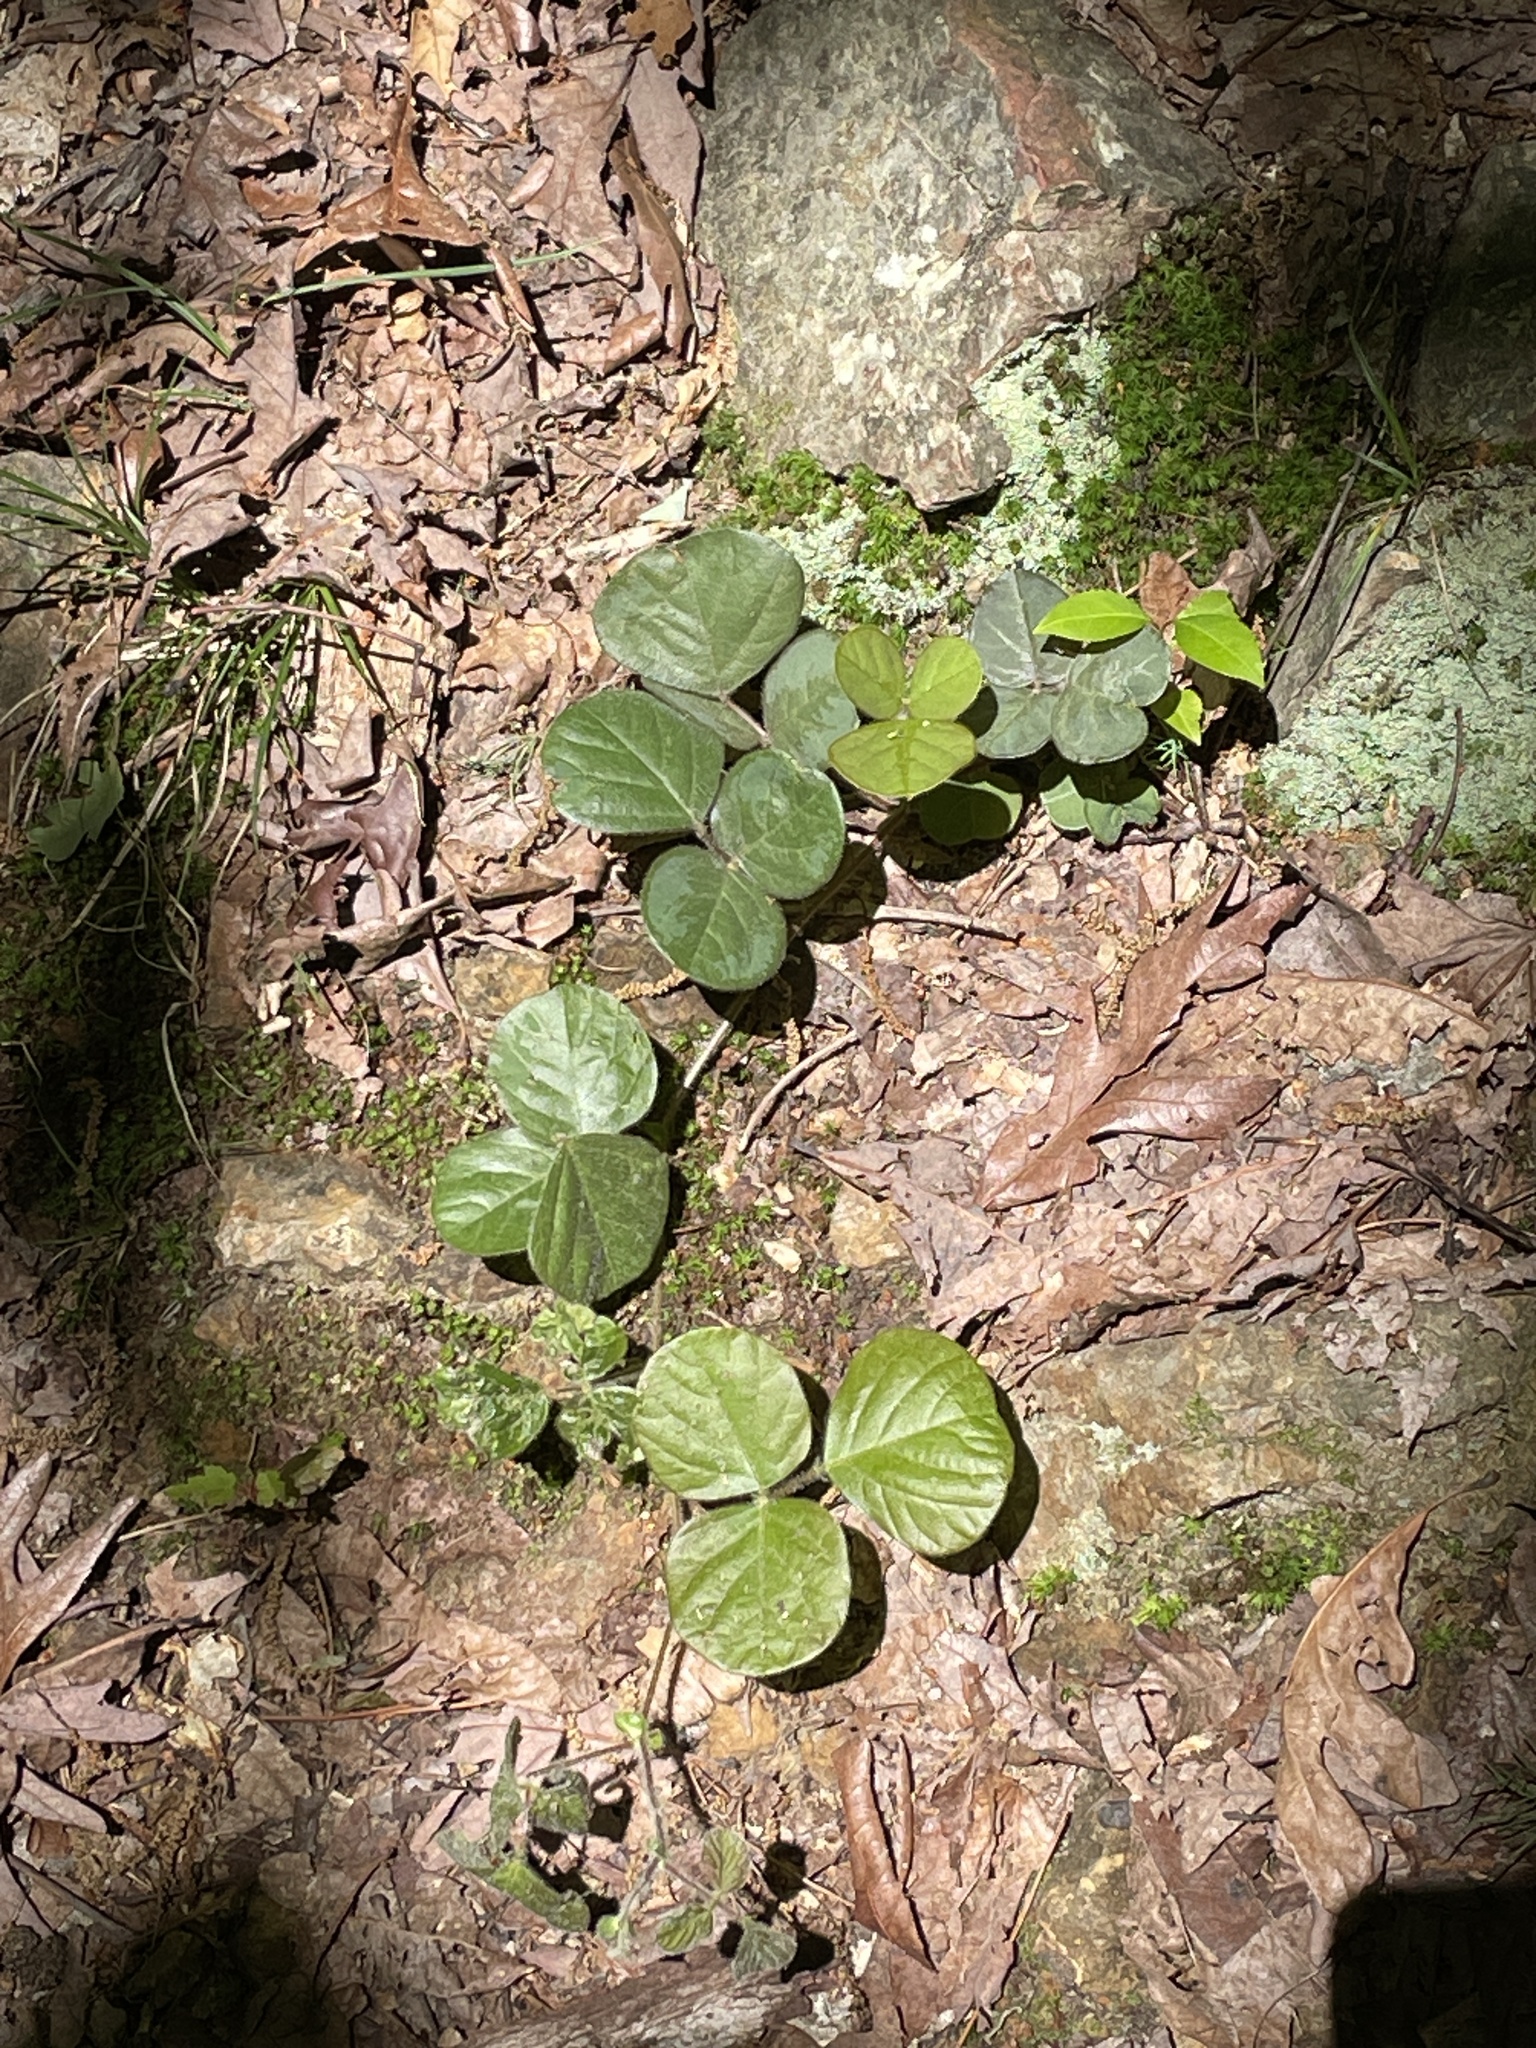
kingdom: Plantae
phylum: Tracheophyta
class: Magnoliopsida
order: Fabales
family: Fabaceae
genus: Desmodium
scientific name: Desmodium rotundifolium
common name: Dollarleaf
